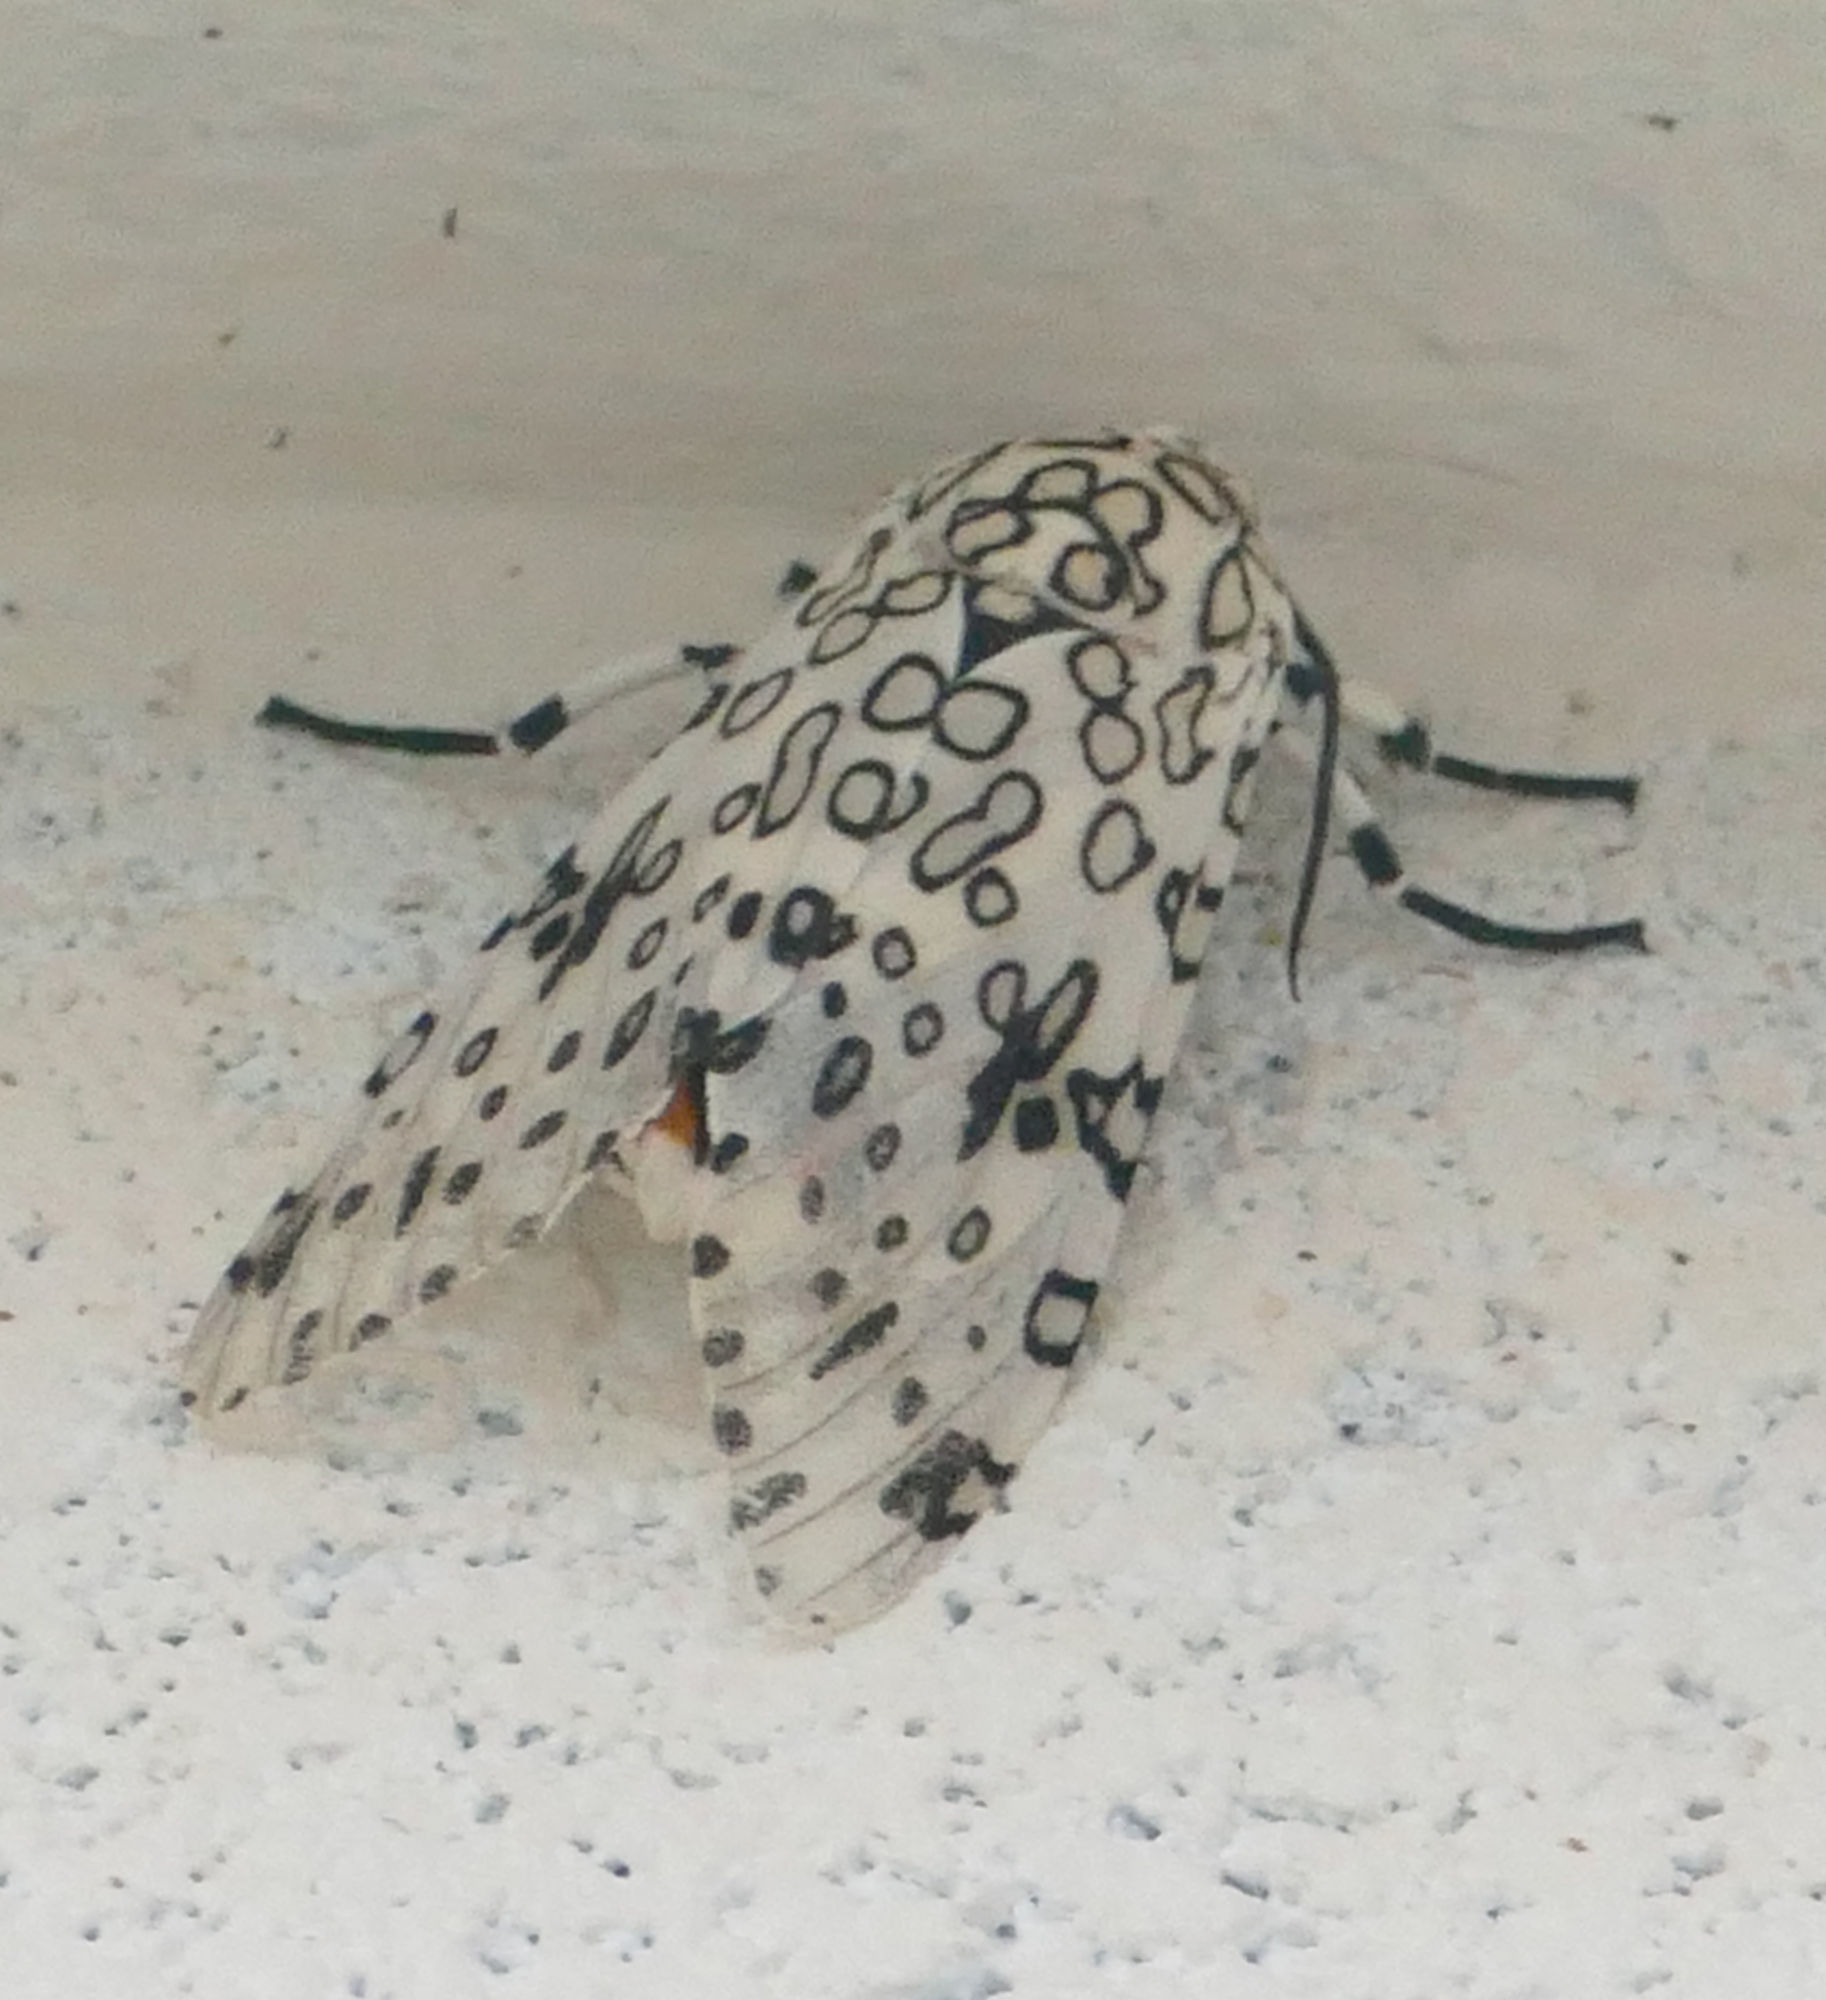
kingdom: Animalia
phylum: Arthropoda
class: Insecta
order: Lepidoptera
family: Erebidae
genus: Hypercompe
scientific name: Hypercompe scribonia
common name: Giant leopard moth
